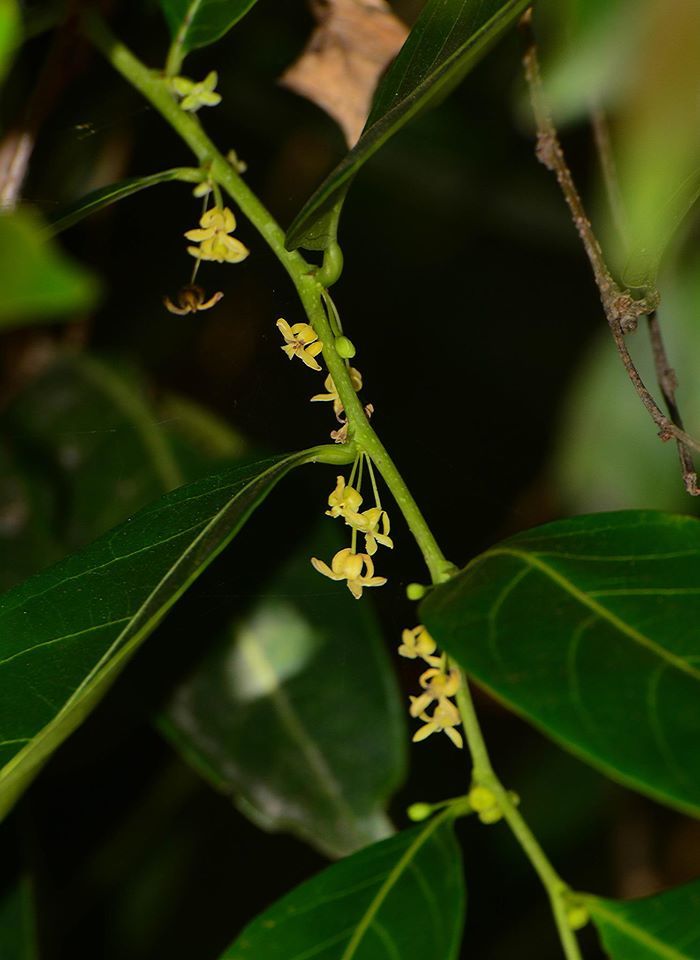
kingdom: Plantae
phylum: Tracheophyta
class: Magnoliopsida
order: Malpighiales
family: Phyllanthaceae
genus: Glochidion
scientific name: Glochidion ellipticum
